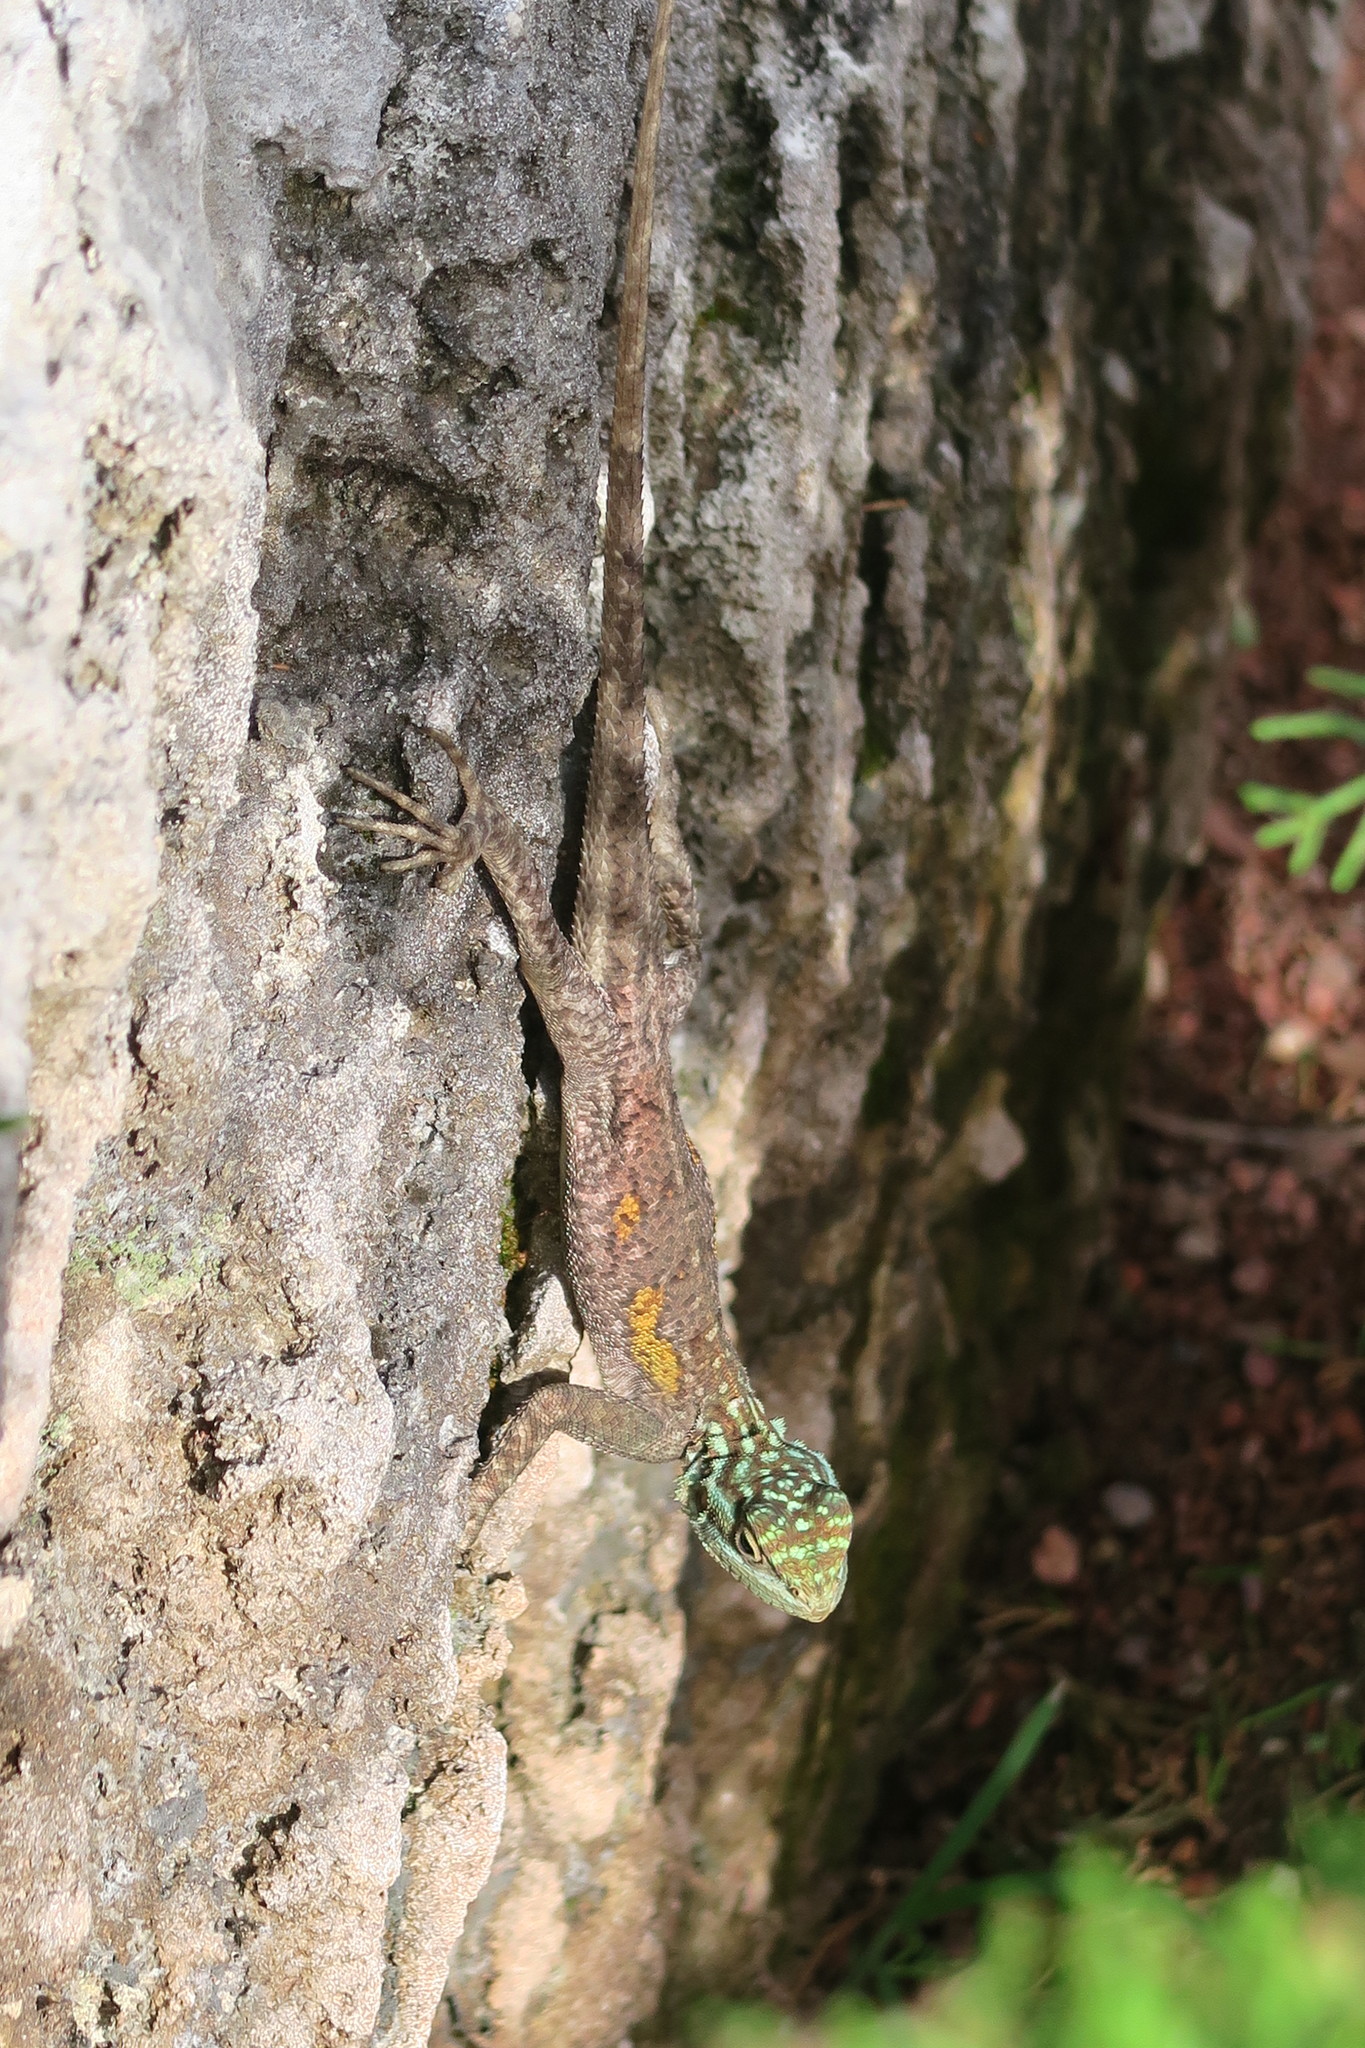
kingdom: Animalia
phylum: Chordata
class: Squamata
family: Agamidae
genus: Agama
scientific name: Agama picticauda
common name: Red-headed agama
